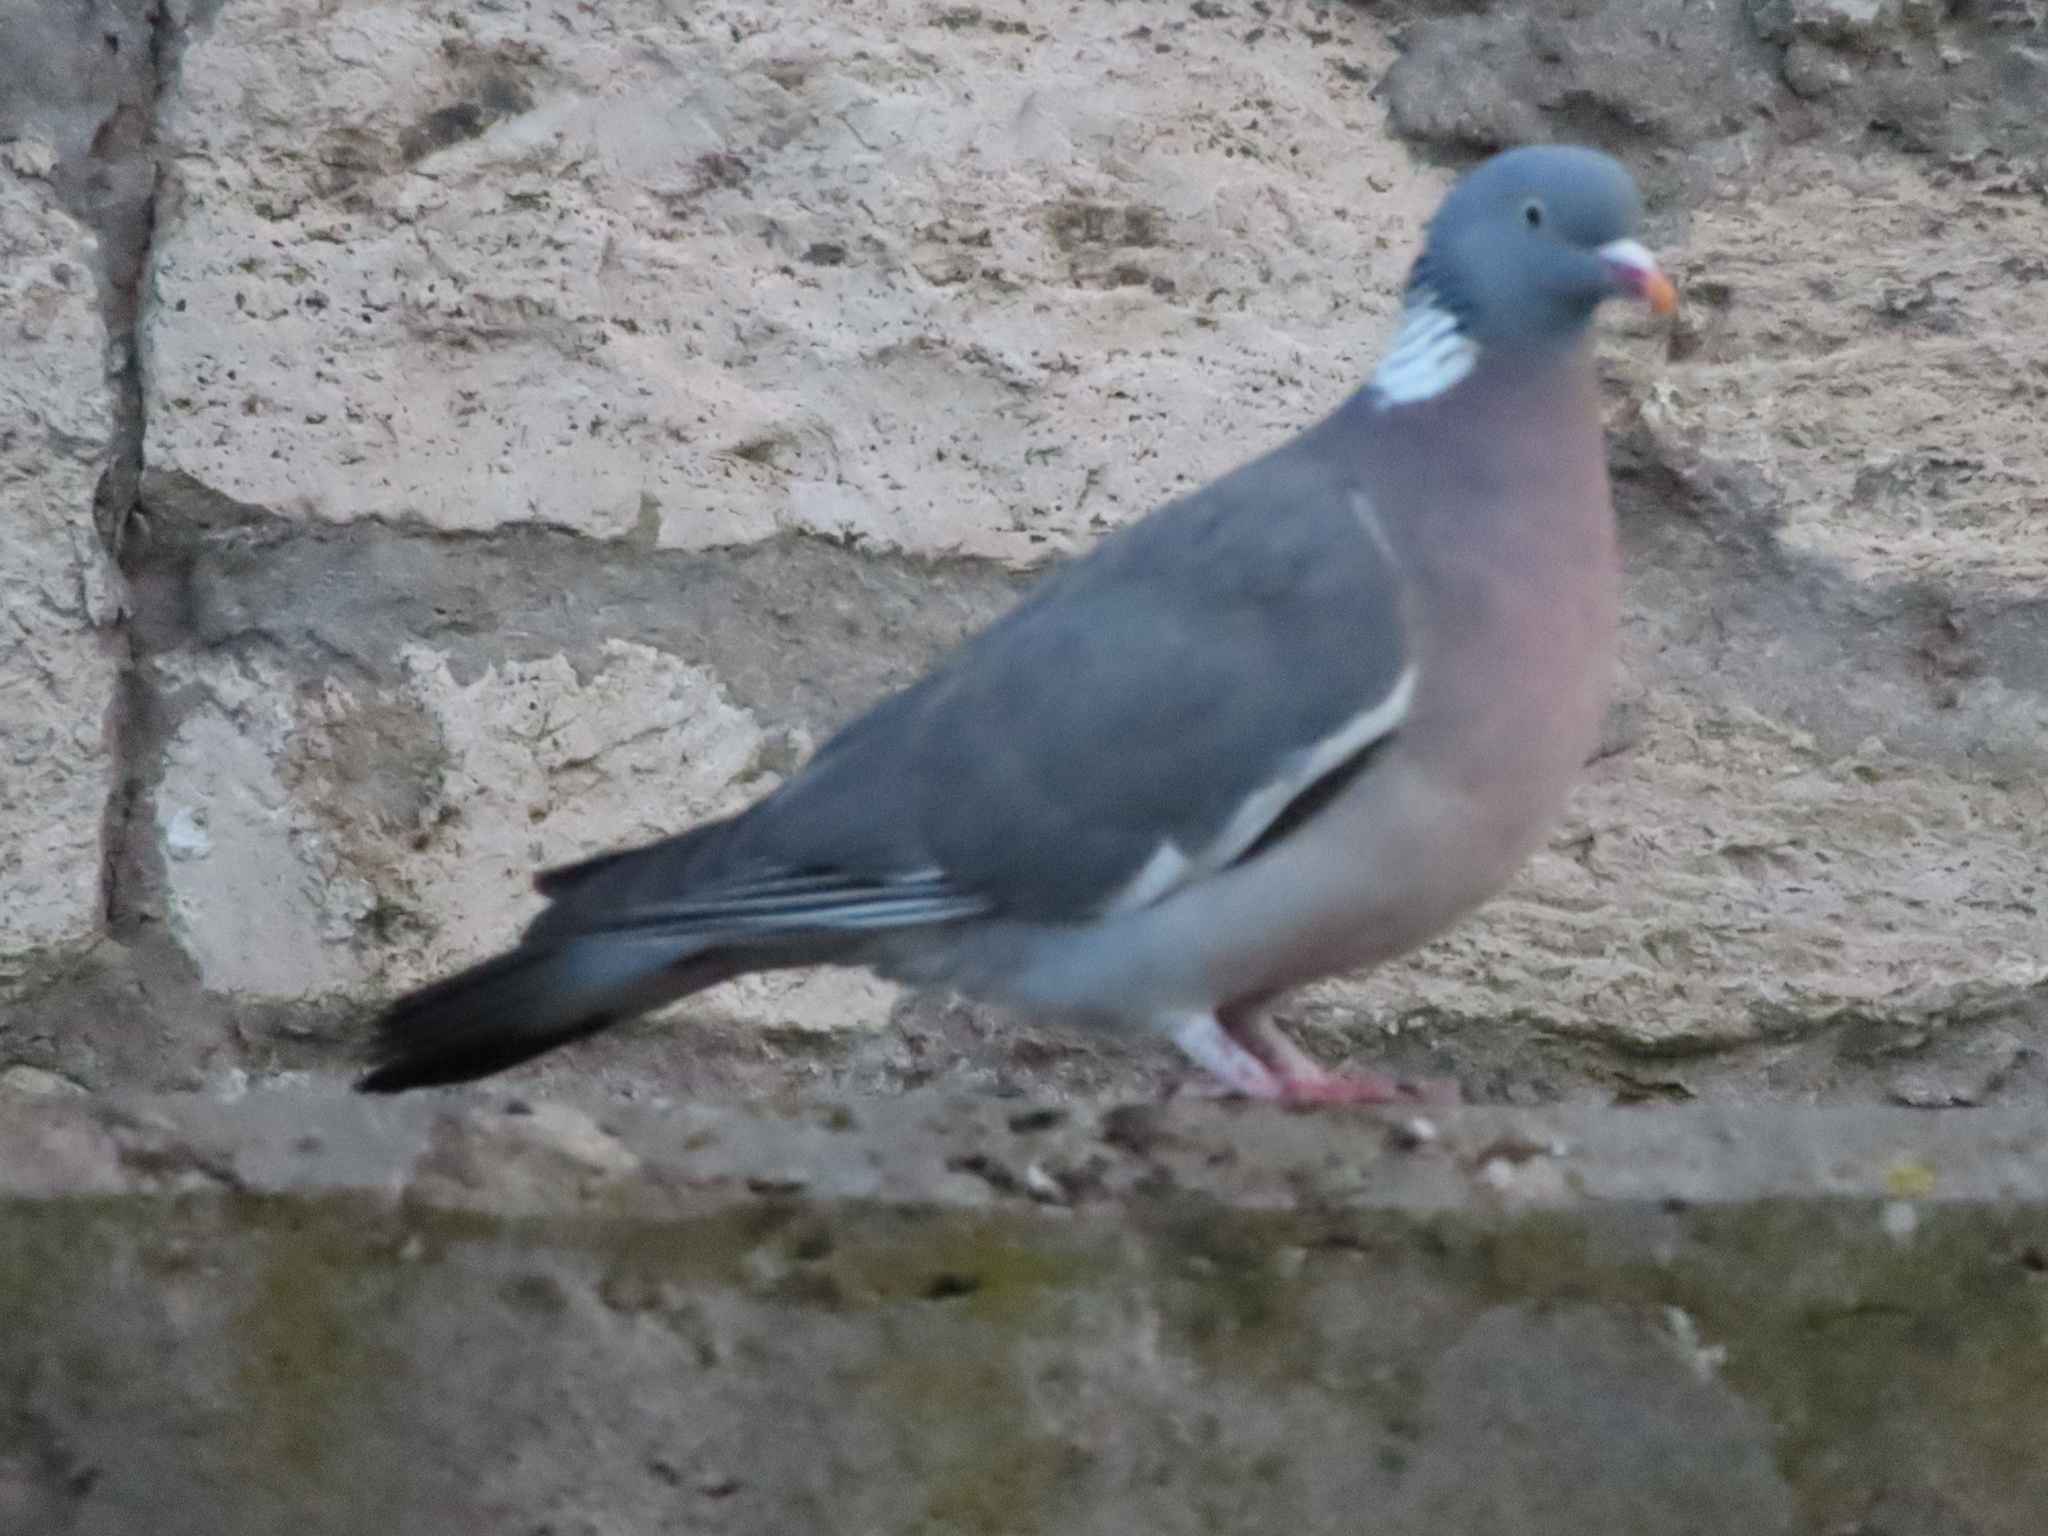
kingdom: Animalia
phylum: Chordata
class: Aves
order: Columbiformes
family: Columbidae
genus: Columba
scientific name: Columba palumbus
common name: Common wood pigeon
